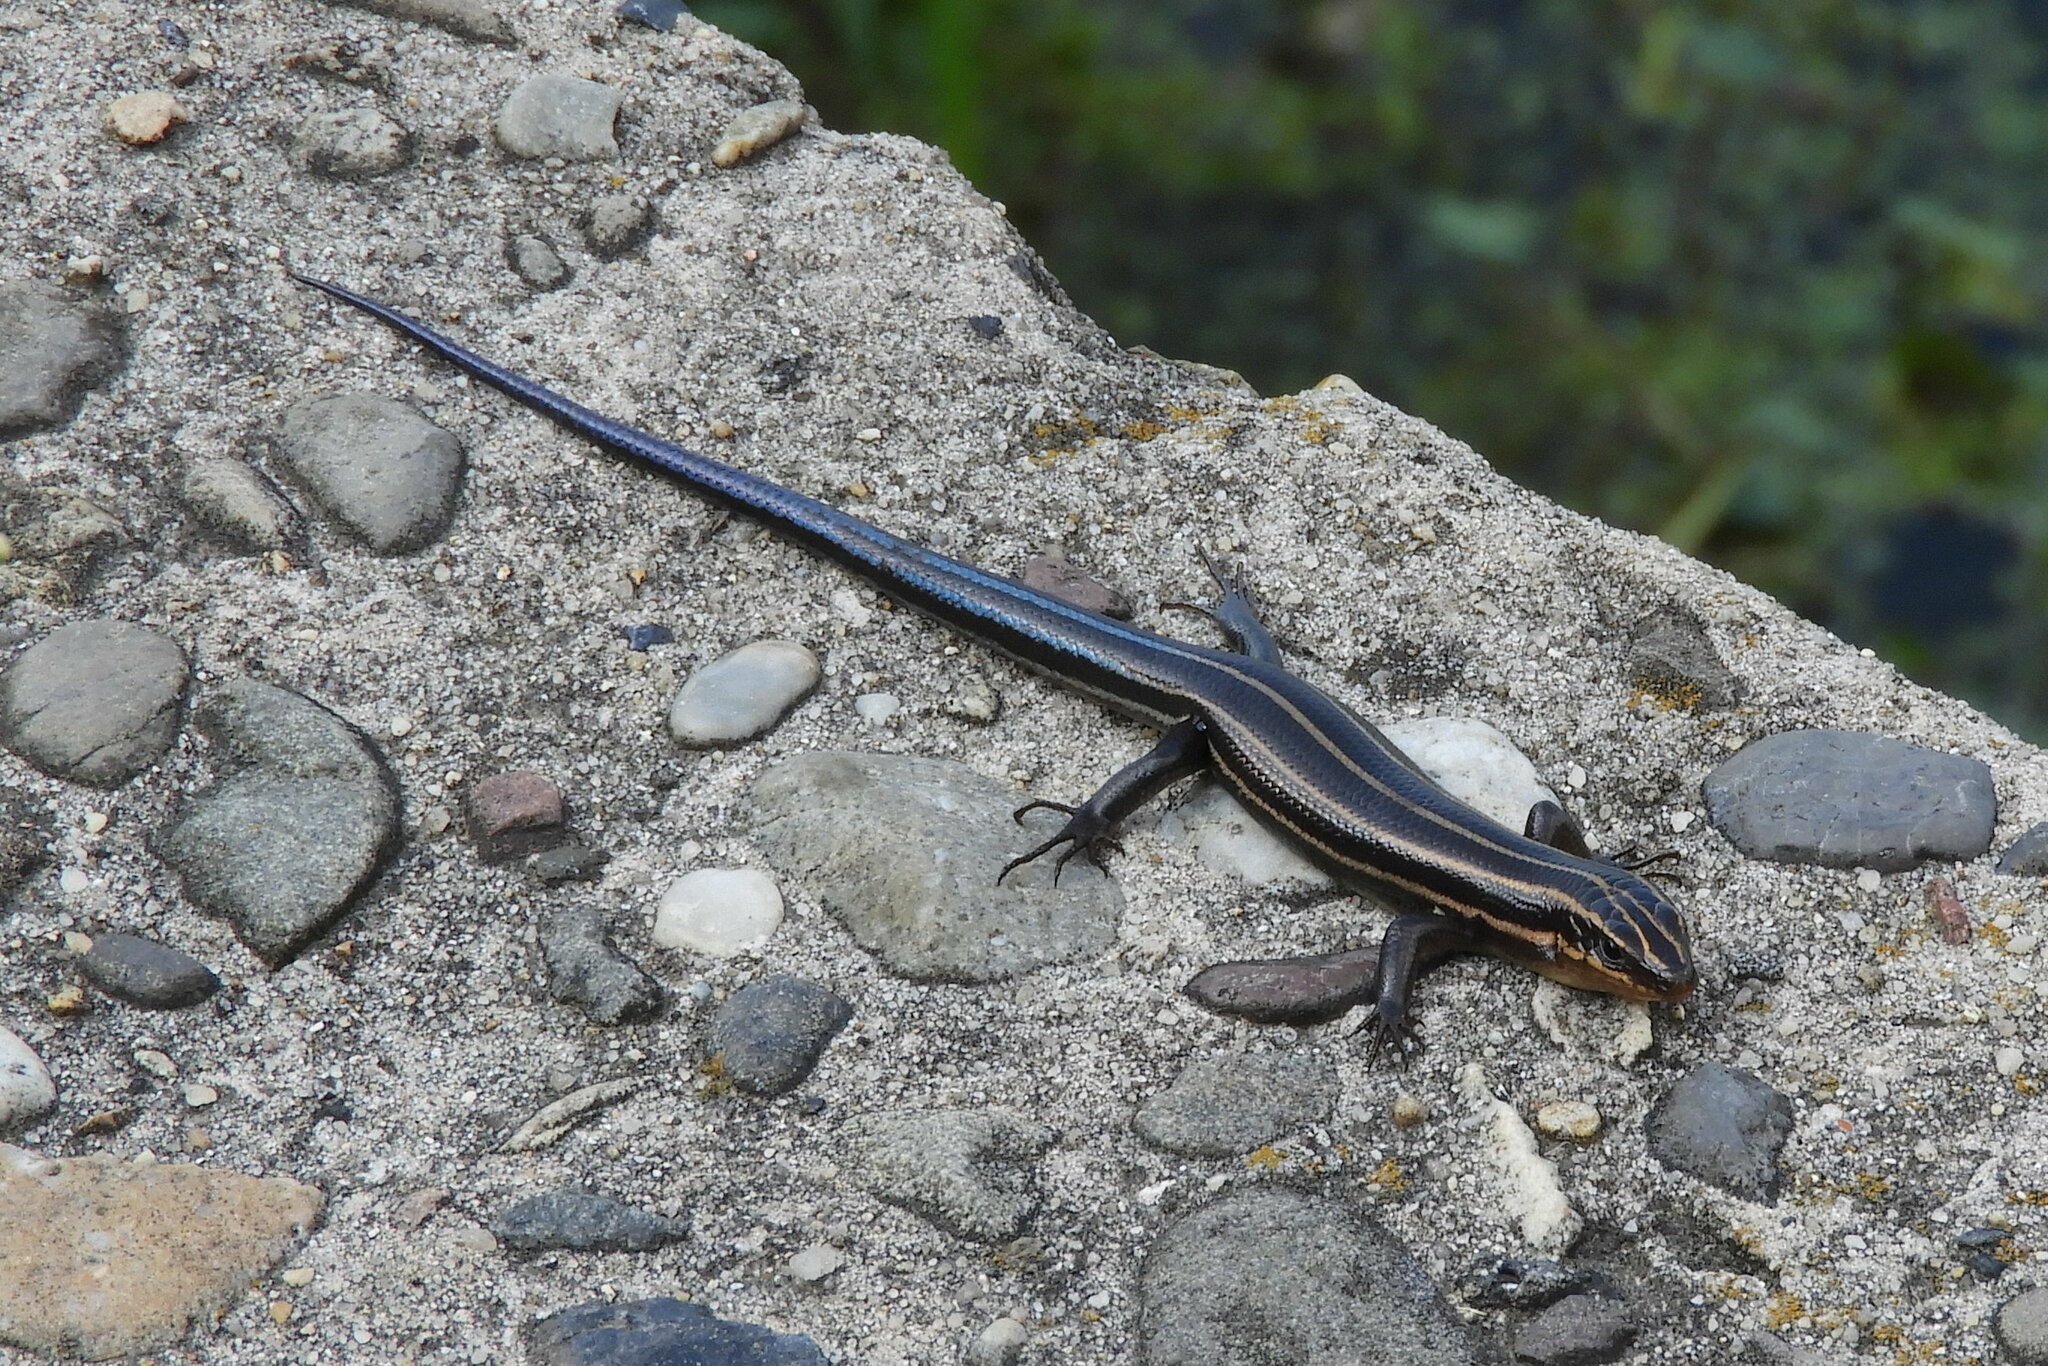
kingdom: Animalia
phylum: Chordata
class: Squamata
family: Scincidae
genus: Plestiodon
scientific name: Plestiodon fasciatus
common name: Five-lined skink
